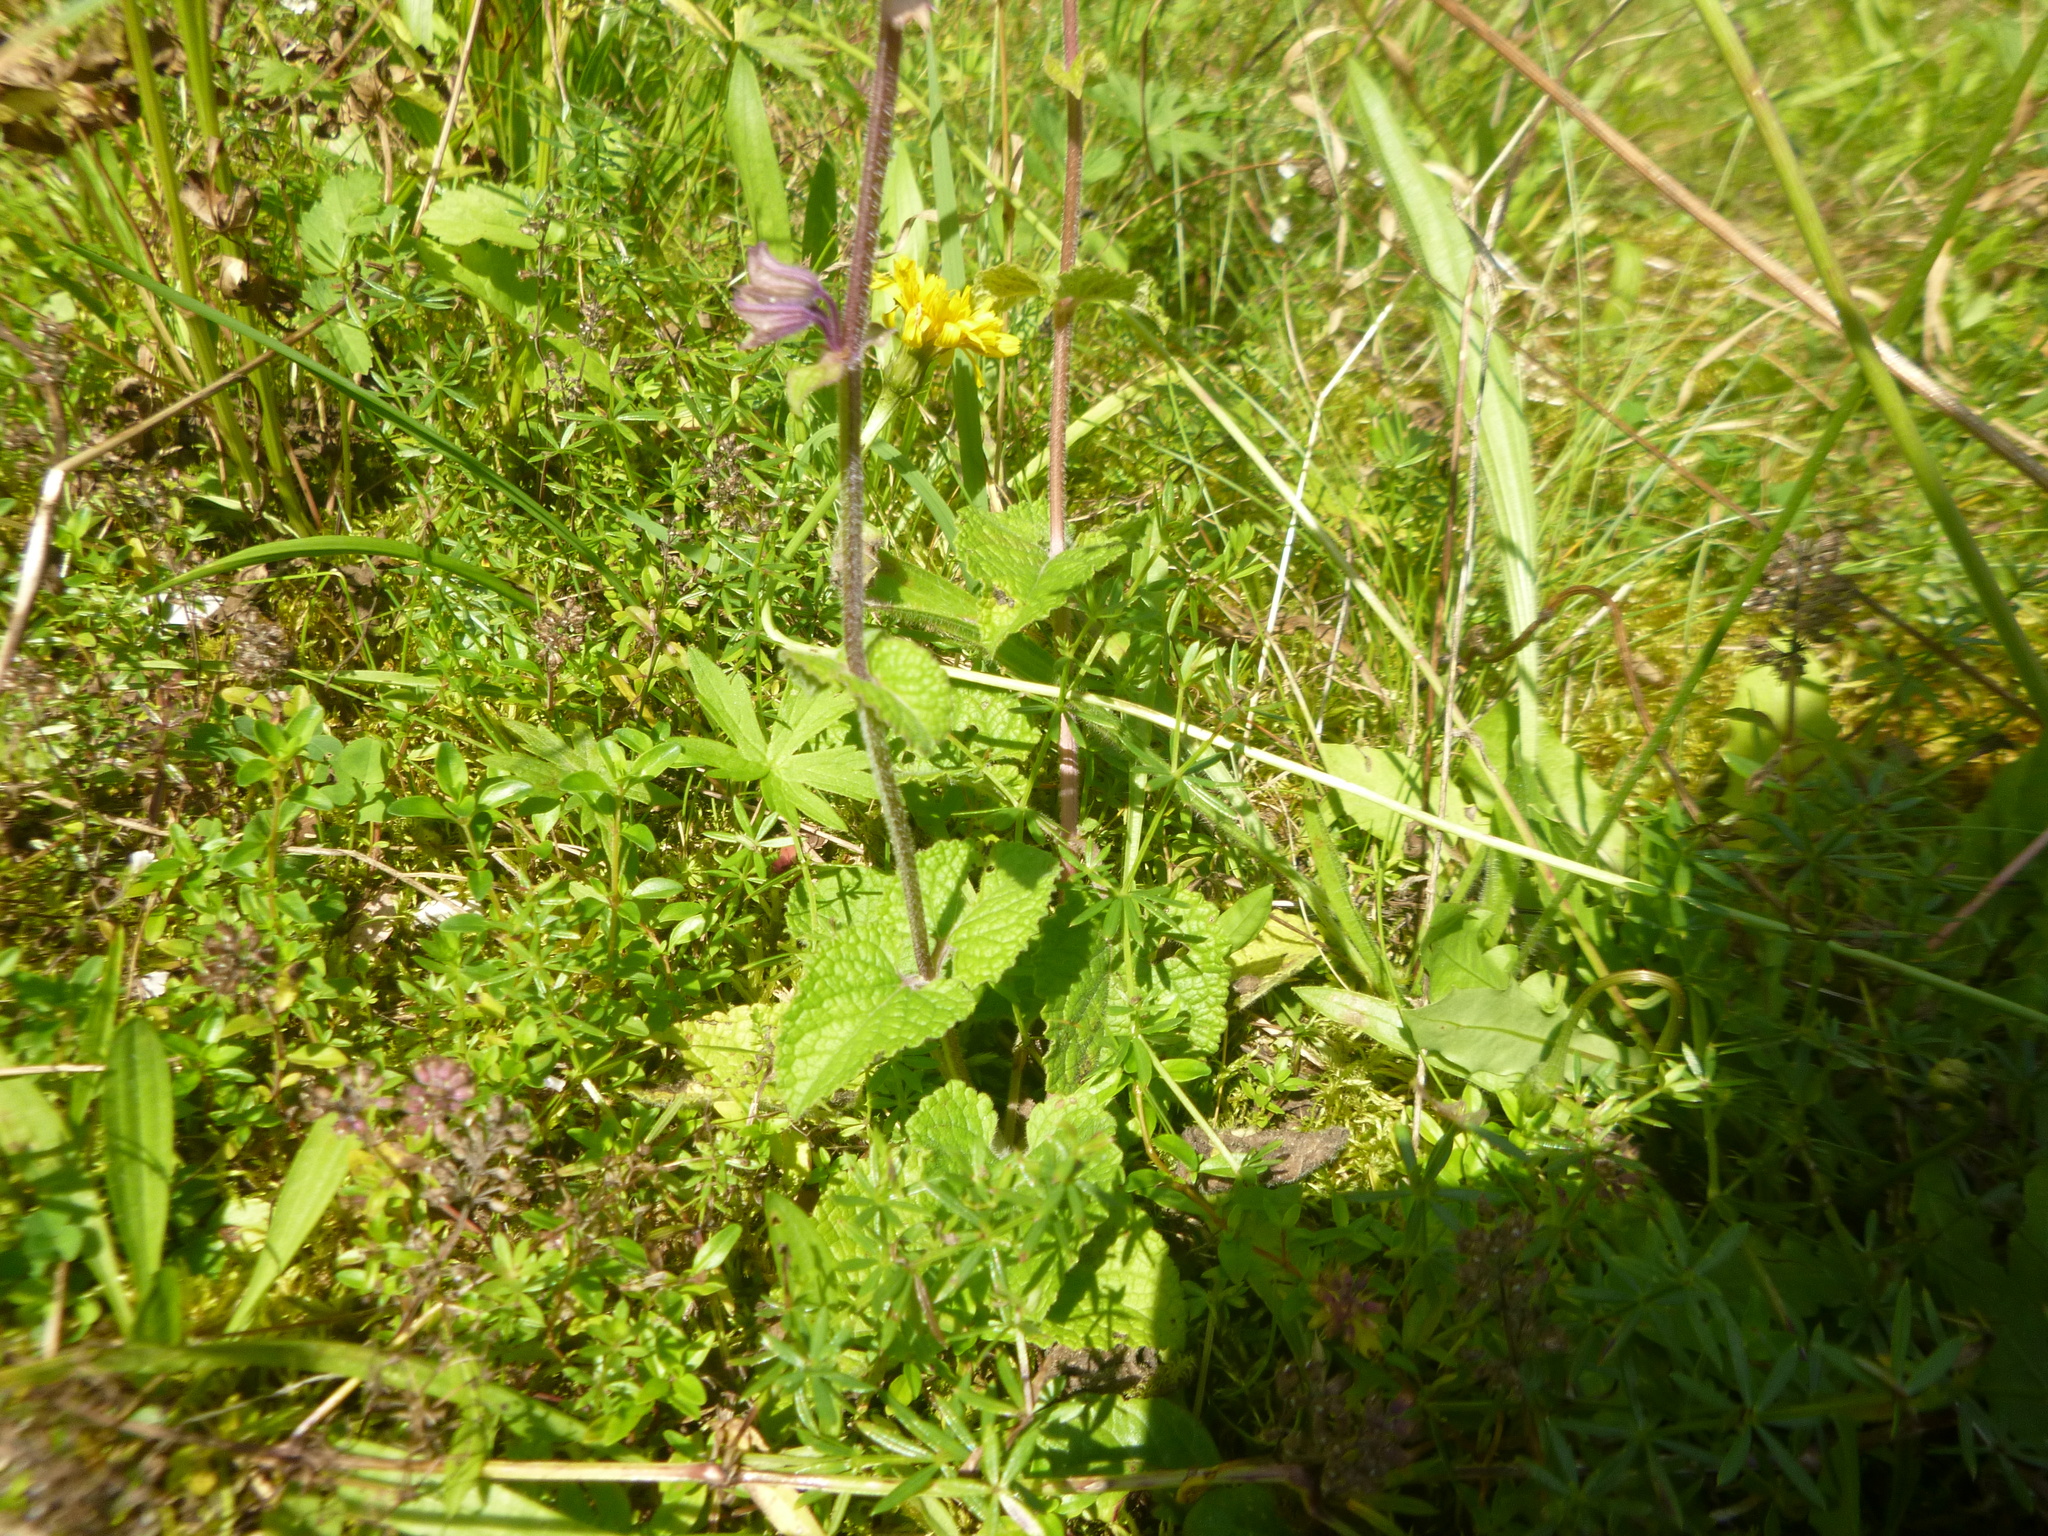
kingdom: Plantae
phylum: Tracheophyta
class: Magnoliopsida
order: Lamiales
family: Lamiaceae
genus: Salvia
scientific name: Salvia verticillata
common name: Whorled clary
